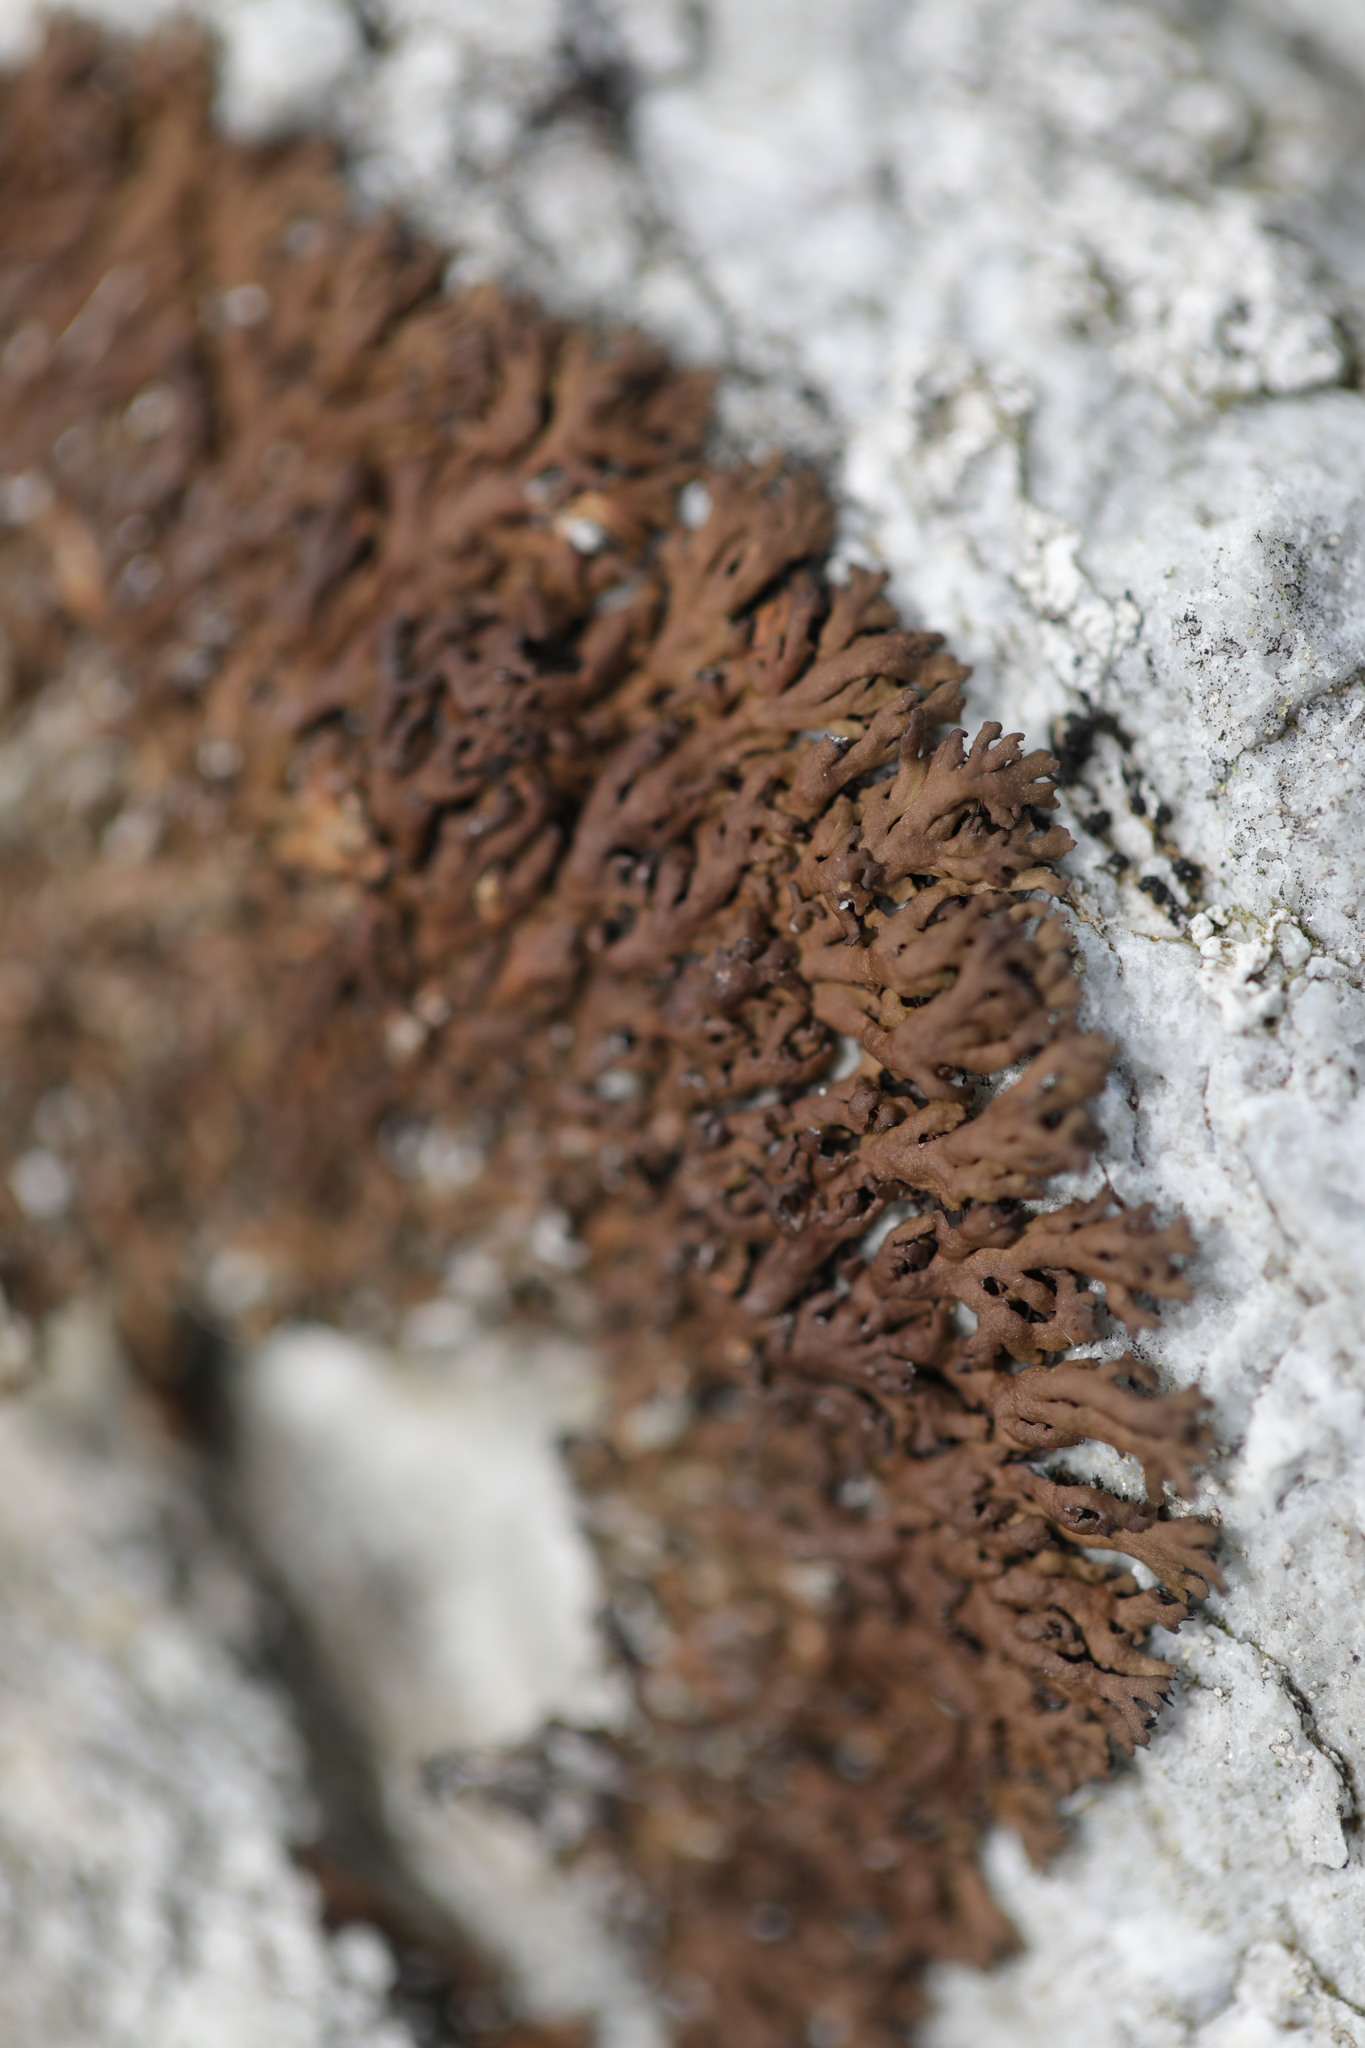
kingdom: Fungi
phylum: Ascomycota
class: Lecanoromycetes
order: Caliciales
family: Physciaceae
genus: Kurokawia
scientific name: Kurokawia runcinata
